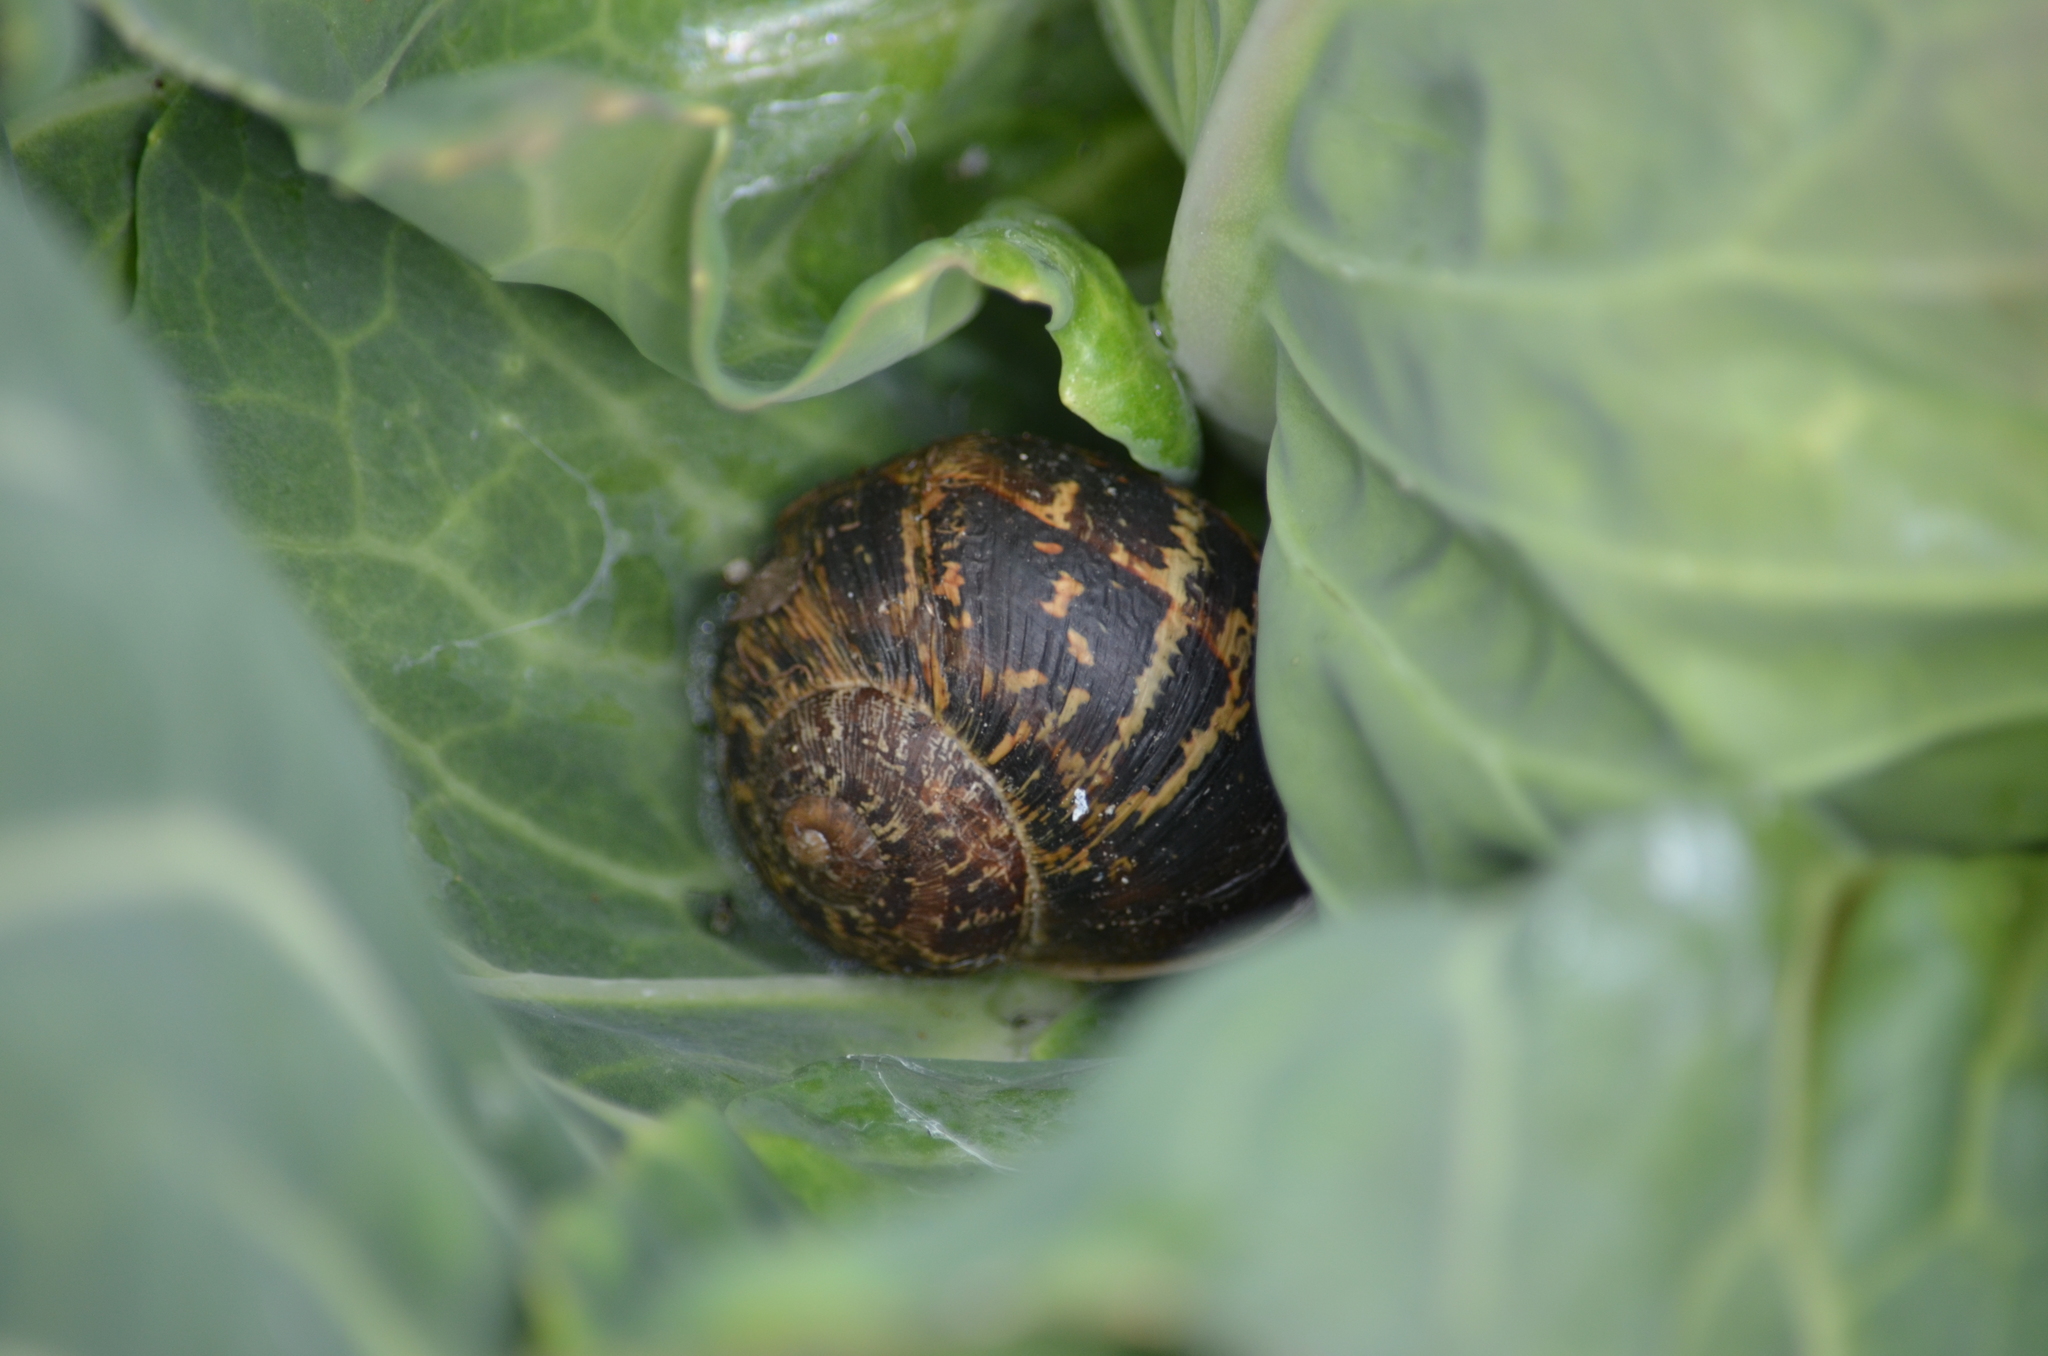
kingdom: Animalia
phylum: Mollusca
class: Gastropoda
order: Stylommatophora
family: Helicidae
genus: Cornu
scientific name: Cornu aspersum
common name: Brown garden snail
